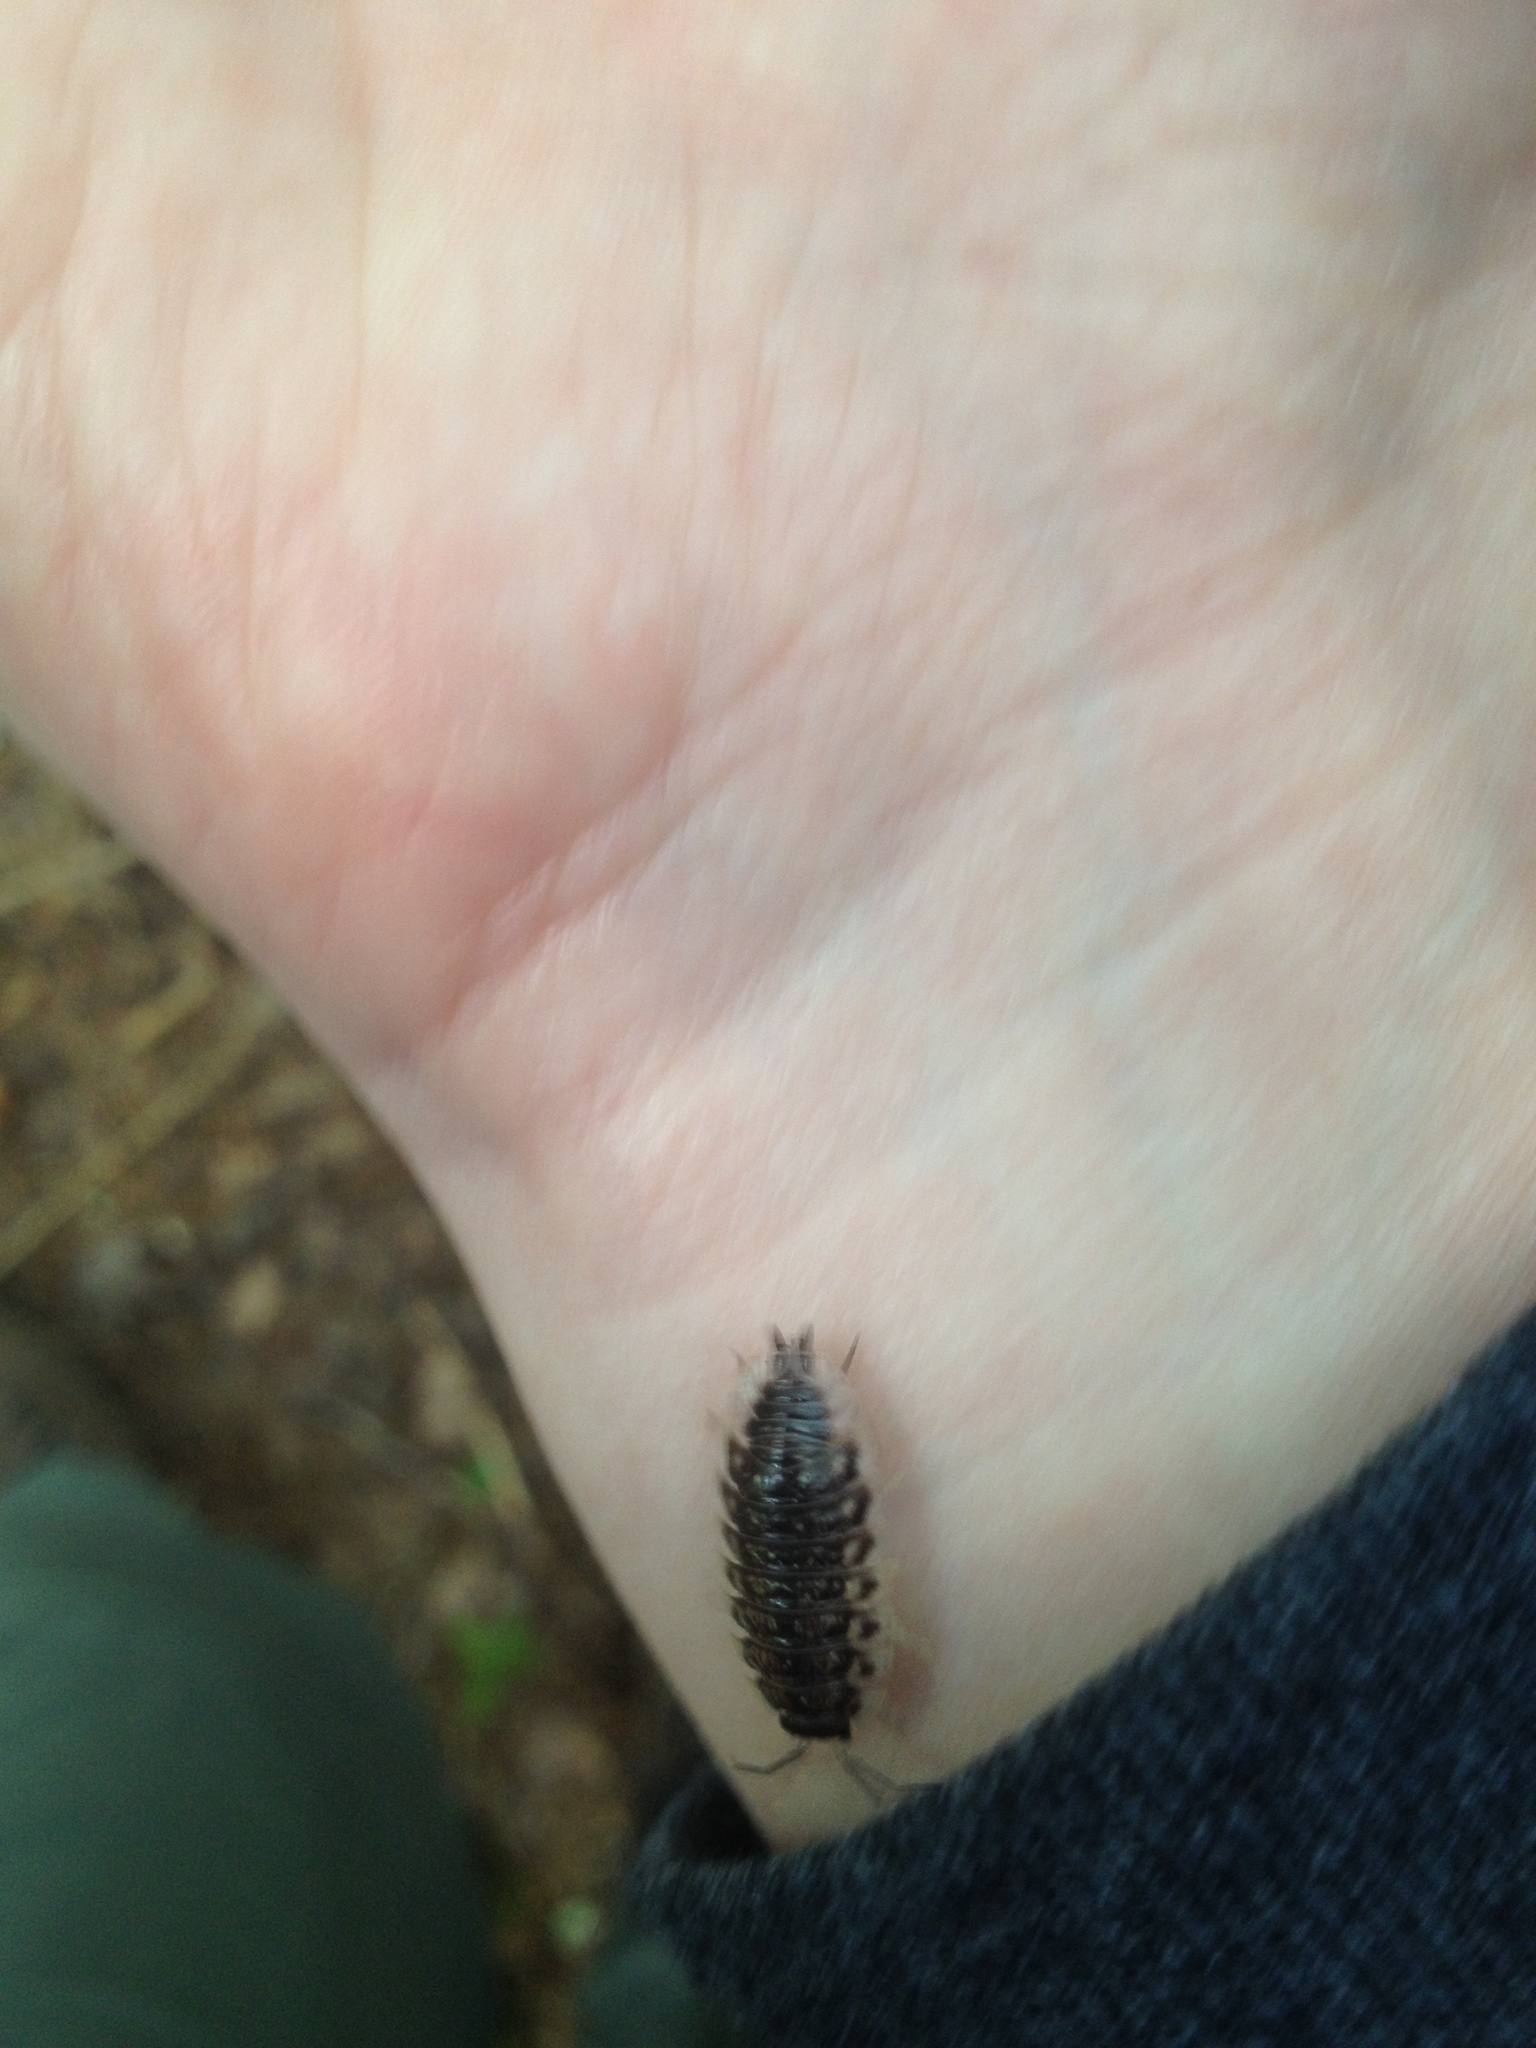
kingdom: Animalia
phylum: Arthropoda
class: Malacostraca
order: Isopoda
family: Oniscidae
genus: Oniscus
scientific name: Oniscus asellus
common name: Common shiny woodlouse
